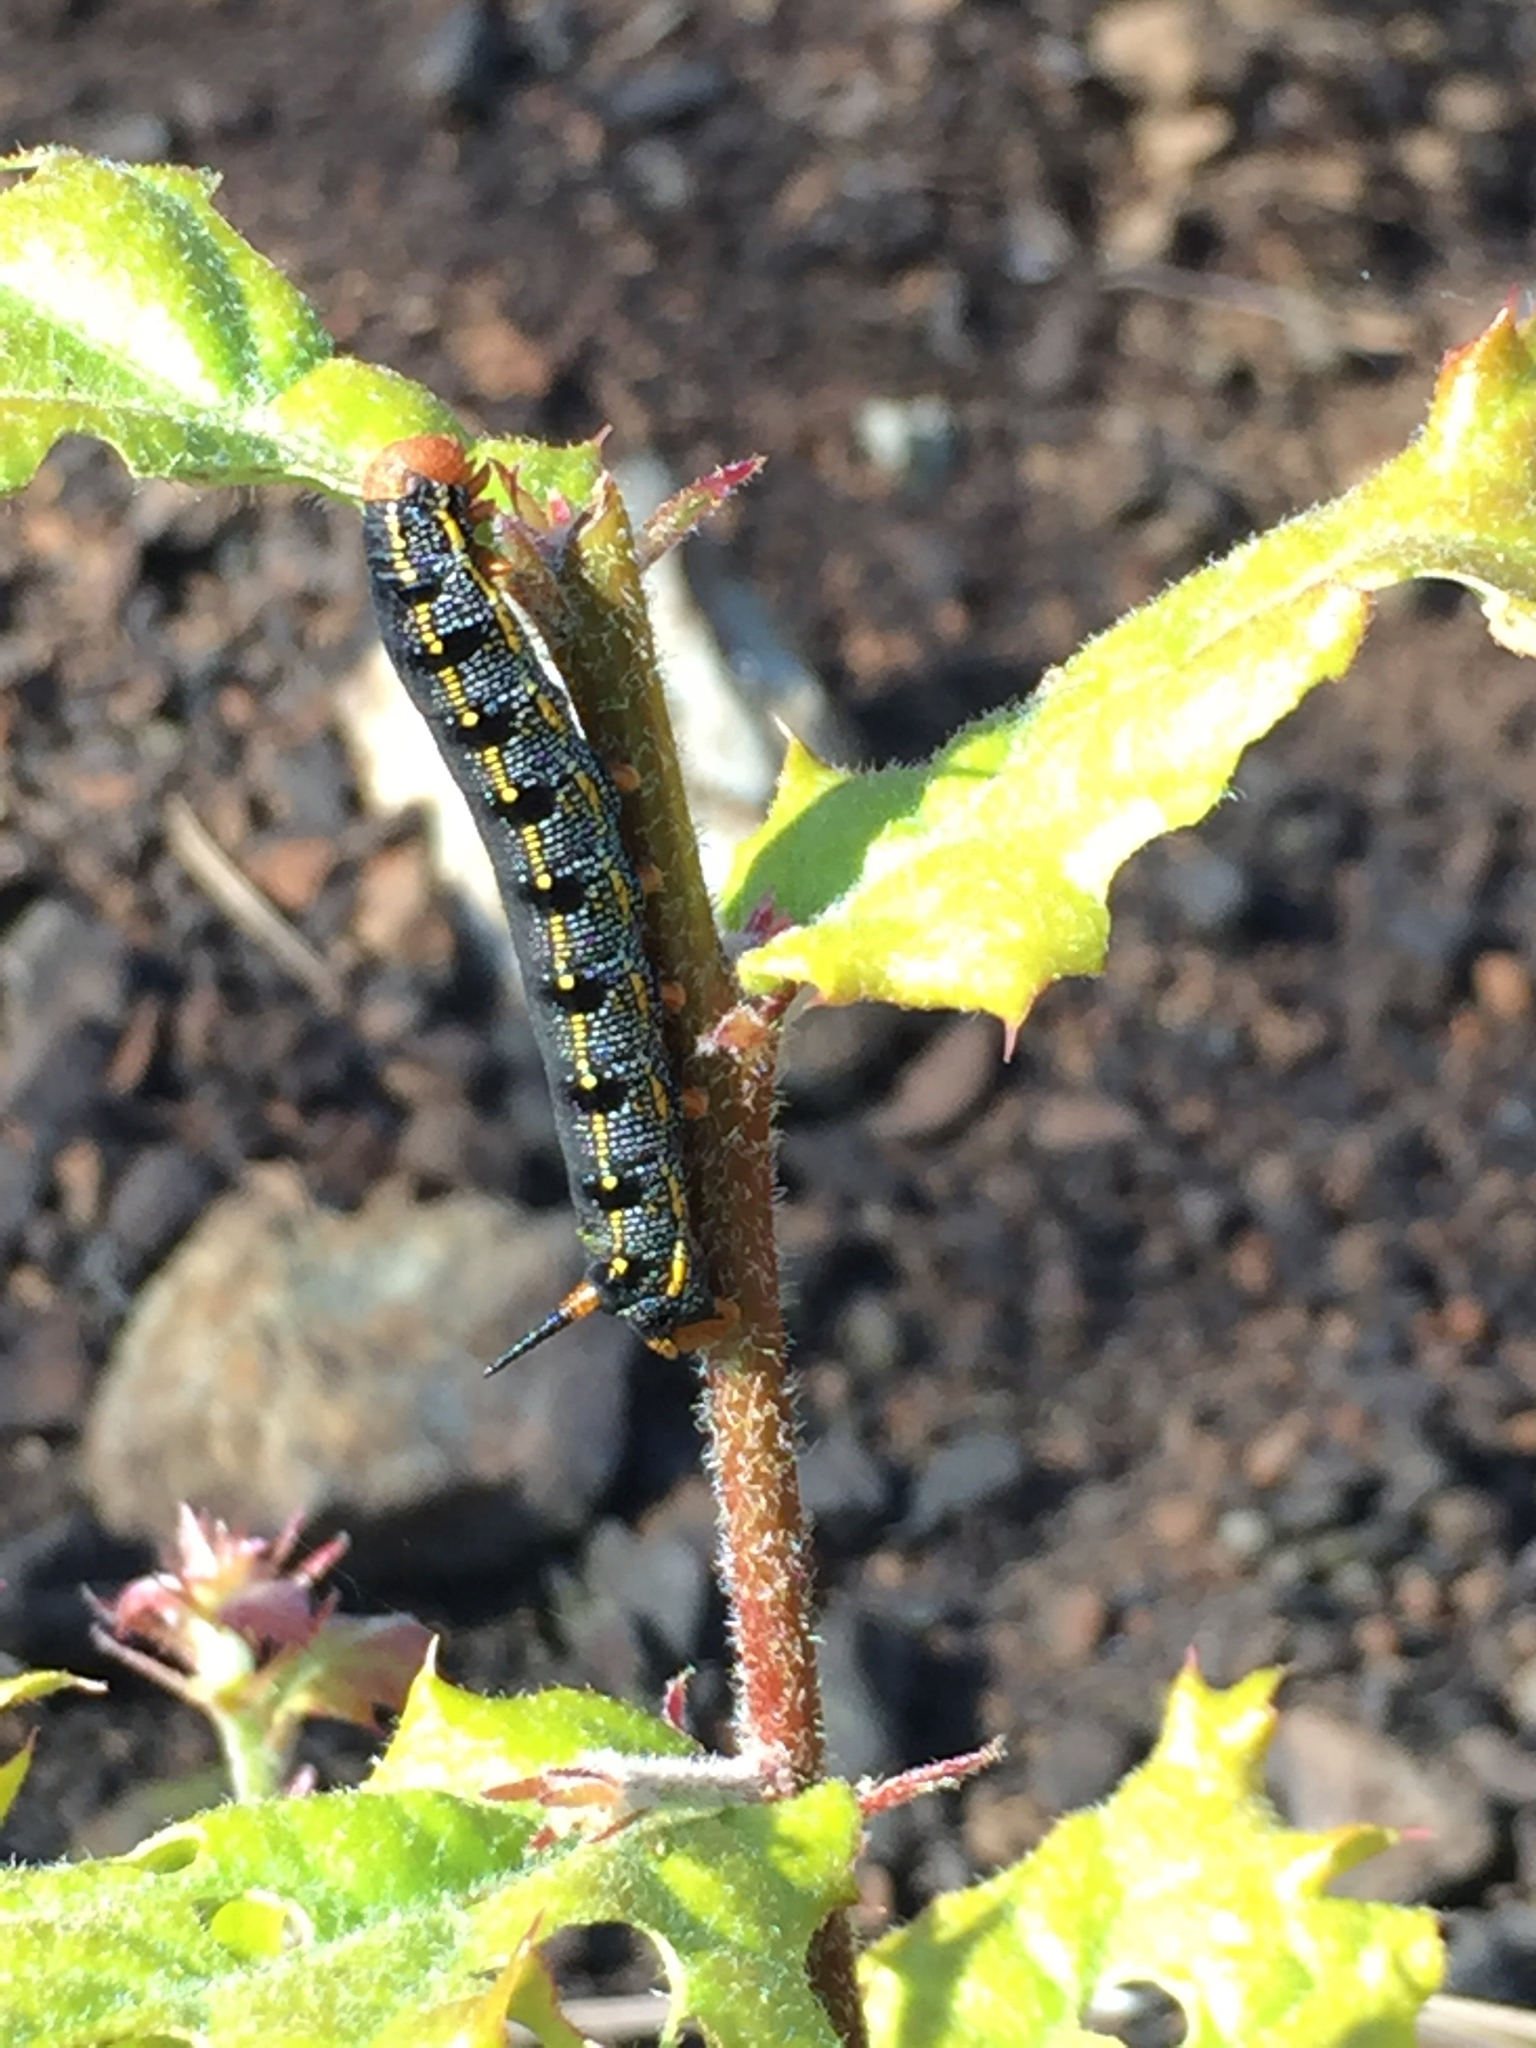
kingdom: Animalia
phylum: Arthropoda
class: Insecta
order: Lepidoptera
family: Sphingidae
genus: Hyles
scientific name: Hyles lineata
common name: White-lined sphinx
